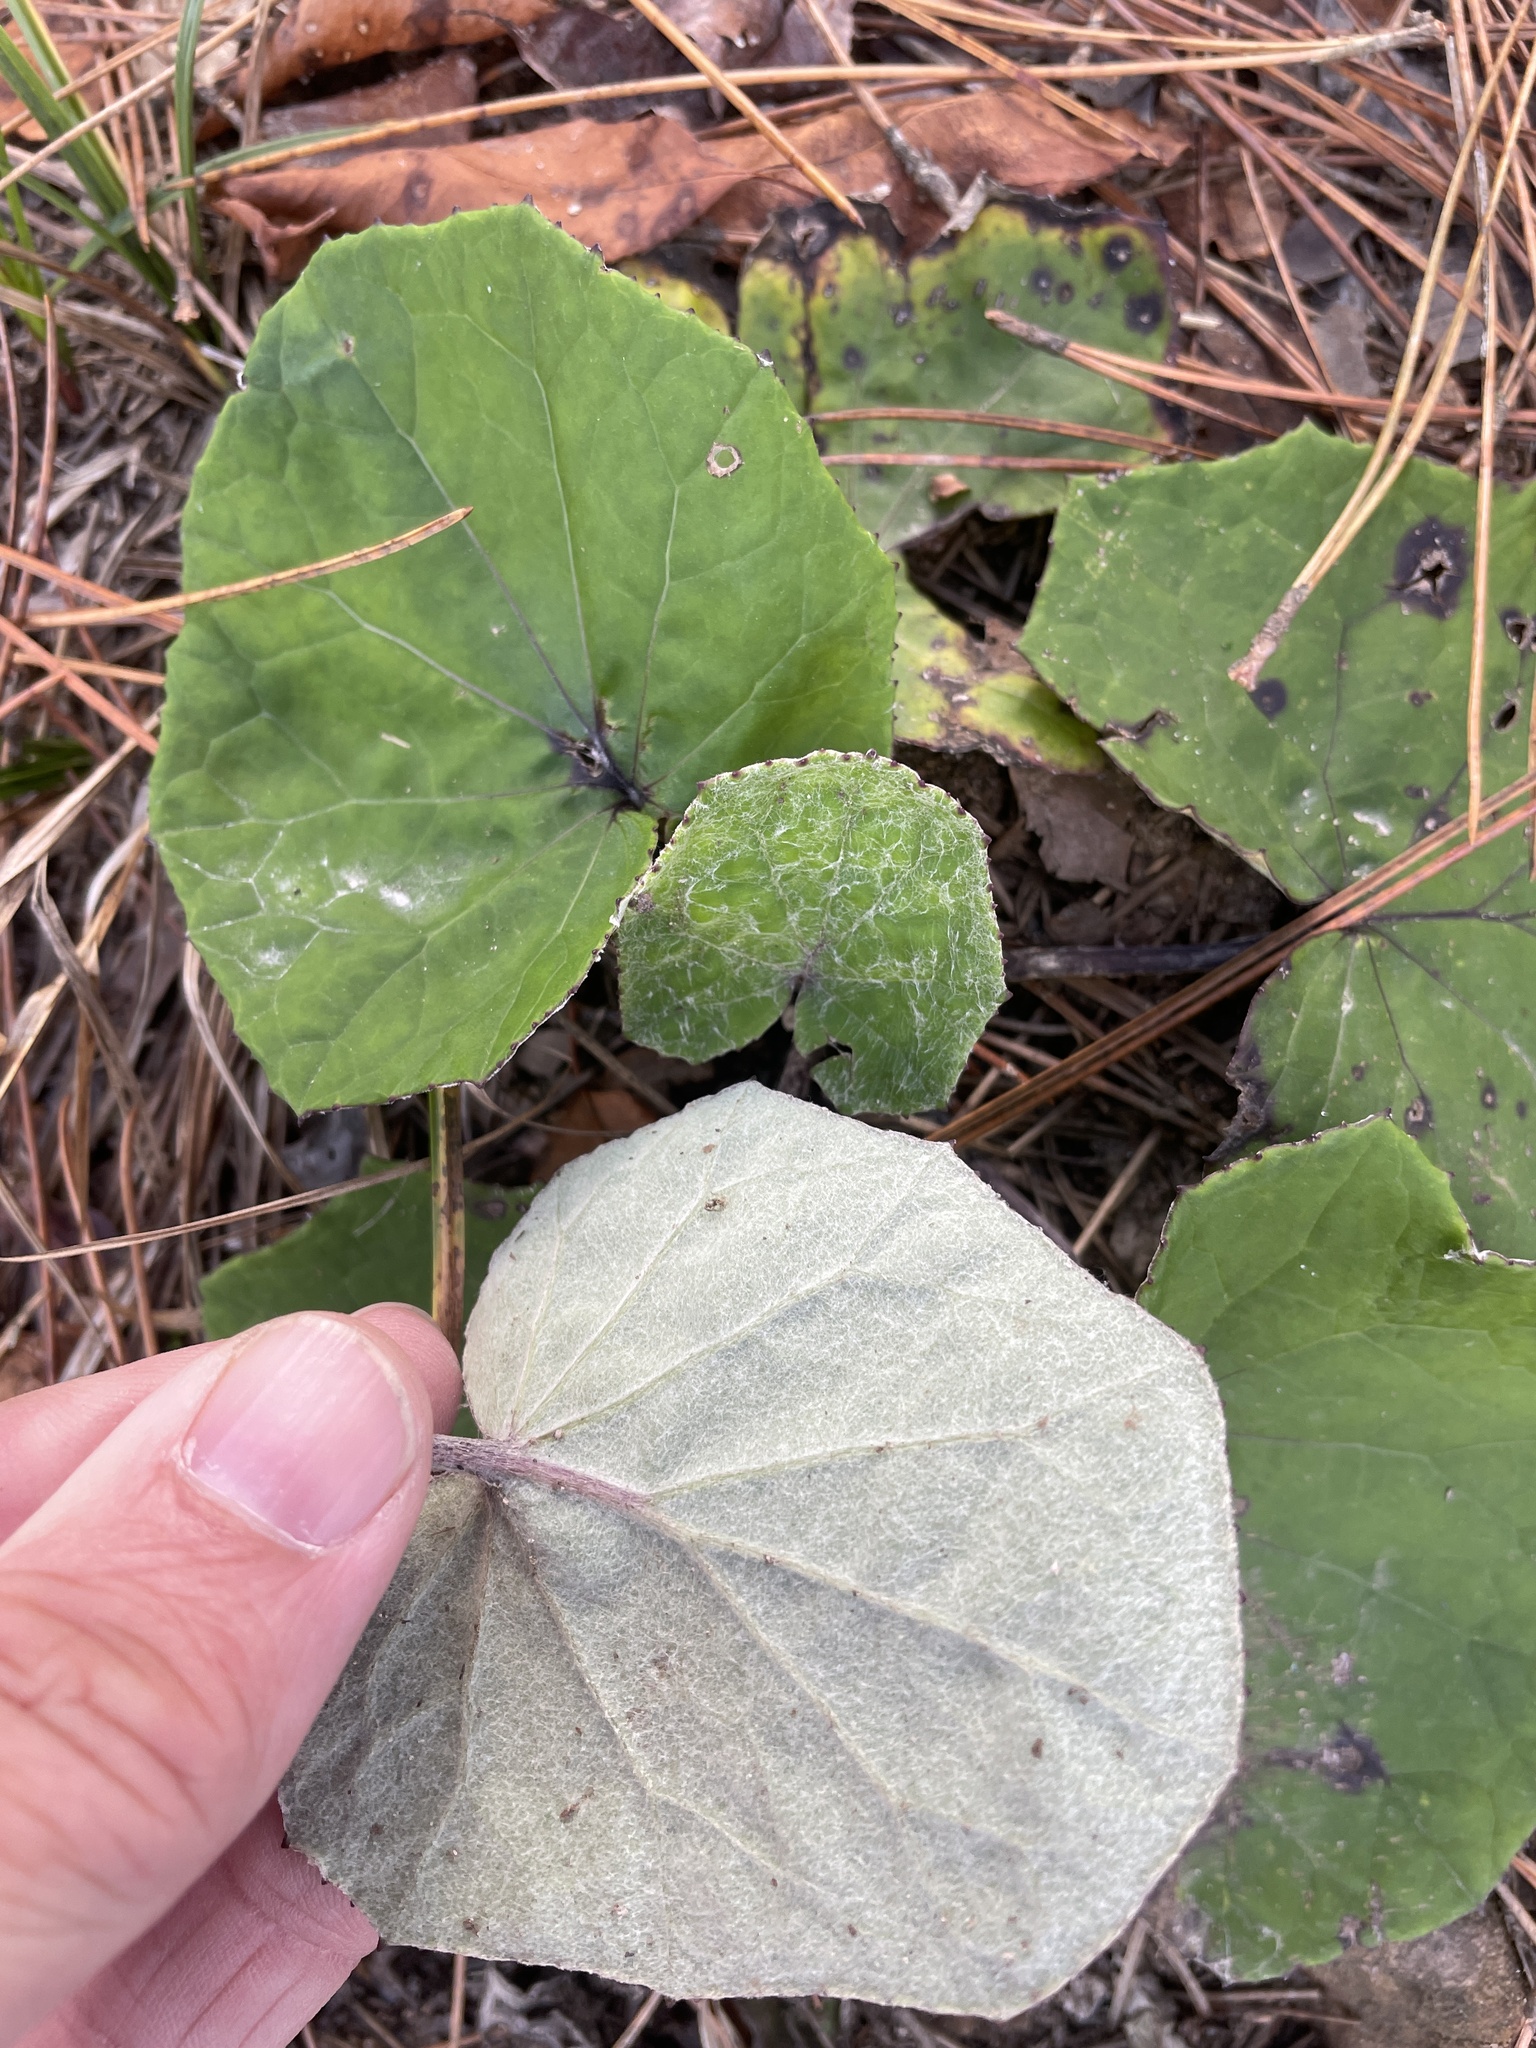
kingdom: Plantae
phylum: Tracheophyta
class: Magnoliopsida
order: Asterales
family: Asteraceae
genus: Tussilago
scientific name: Tussilago farfara
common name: Coltsfoot
